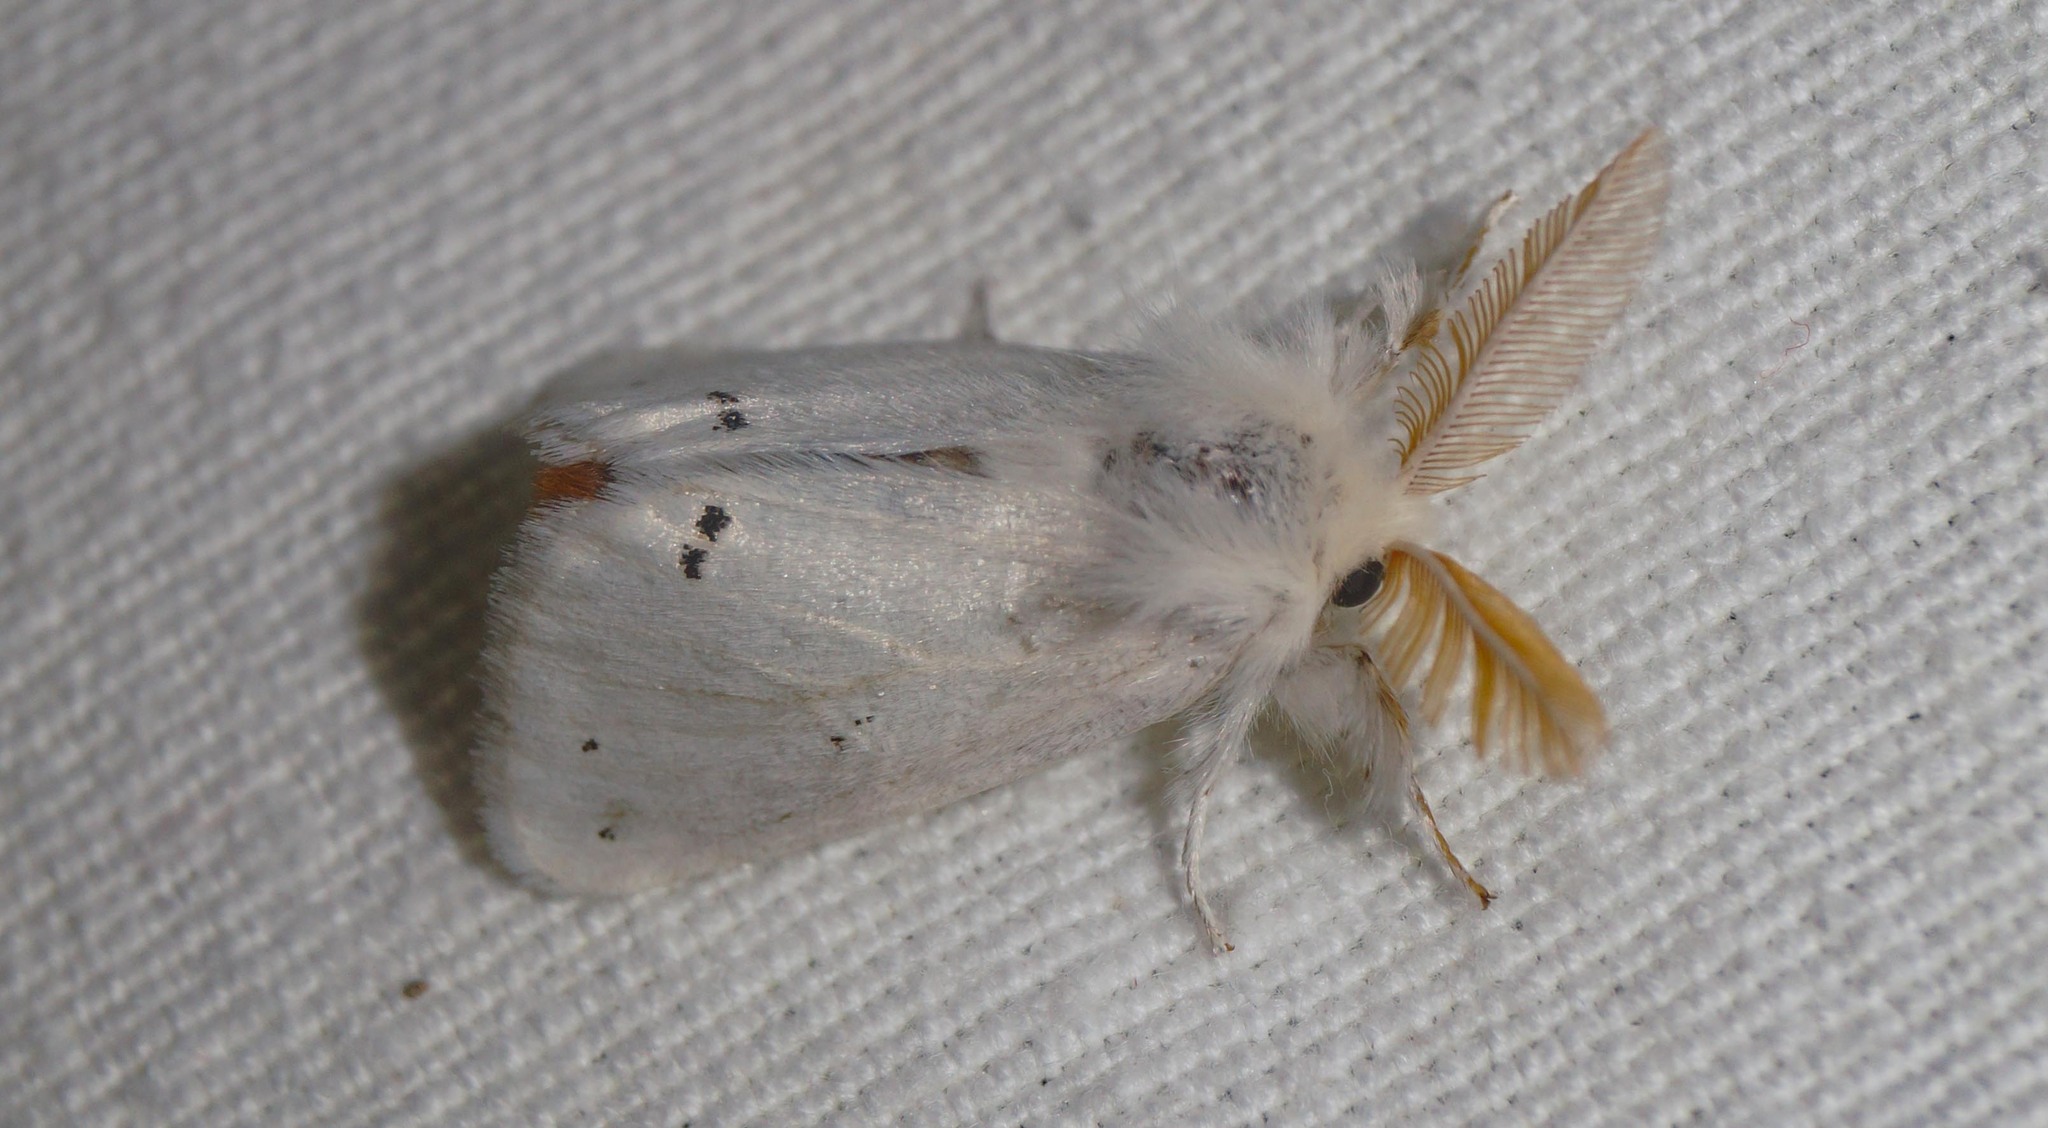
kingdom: Animalia
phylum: Arthropoda
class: Insecta
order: Lepidoptera
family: Erebidae
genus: Euproctis
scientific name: Euproctis chrysorrhoea
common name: Brown-tail
